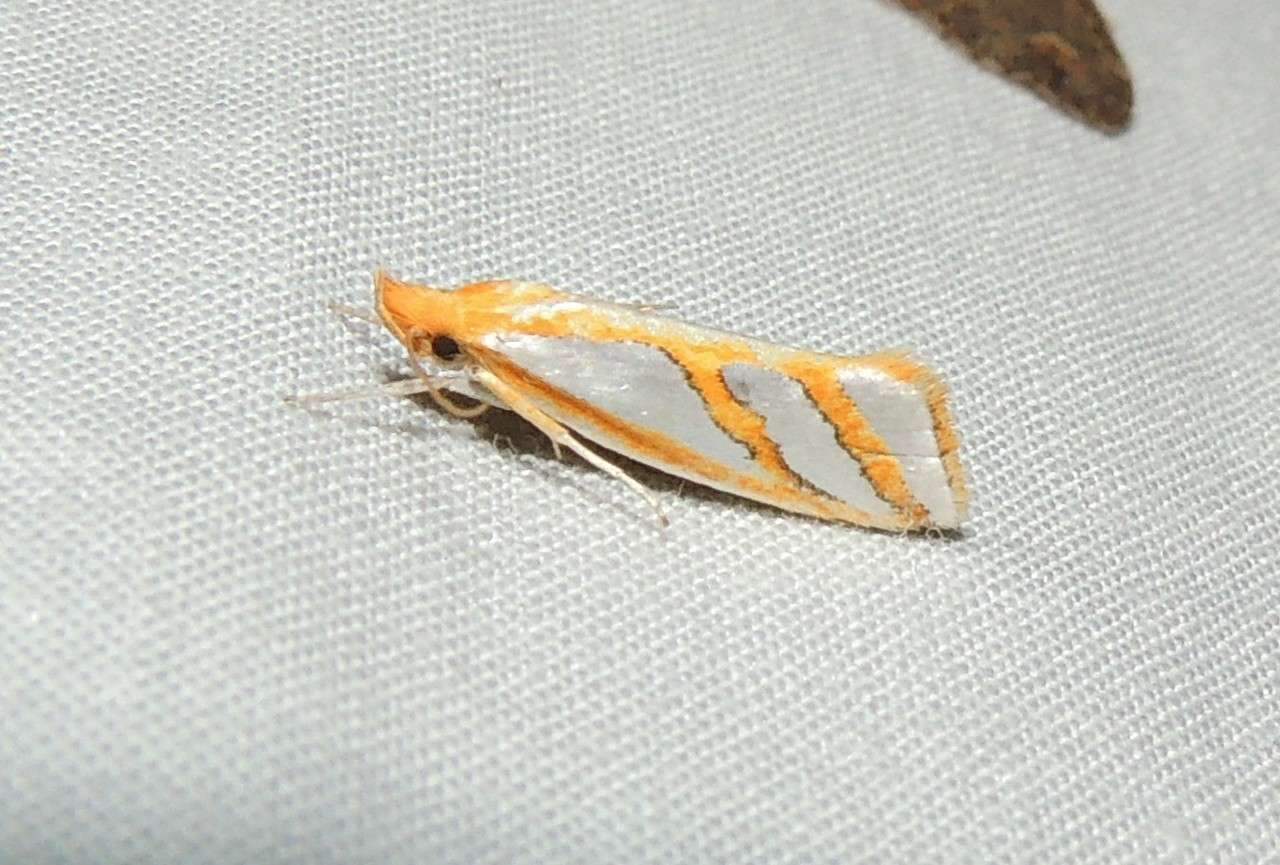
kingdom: Animalia
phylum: Arthropoda
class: Insecta
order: Lepidoptera
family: Depressariidae
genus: Thudaca
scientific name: Thudaca mimodora
